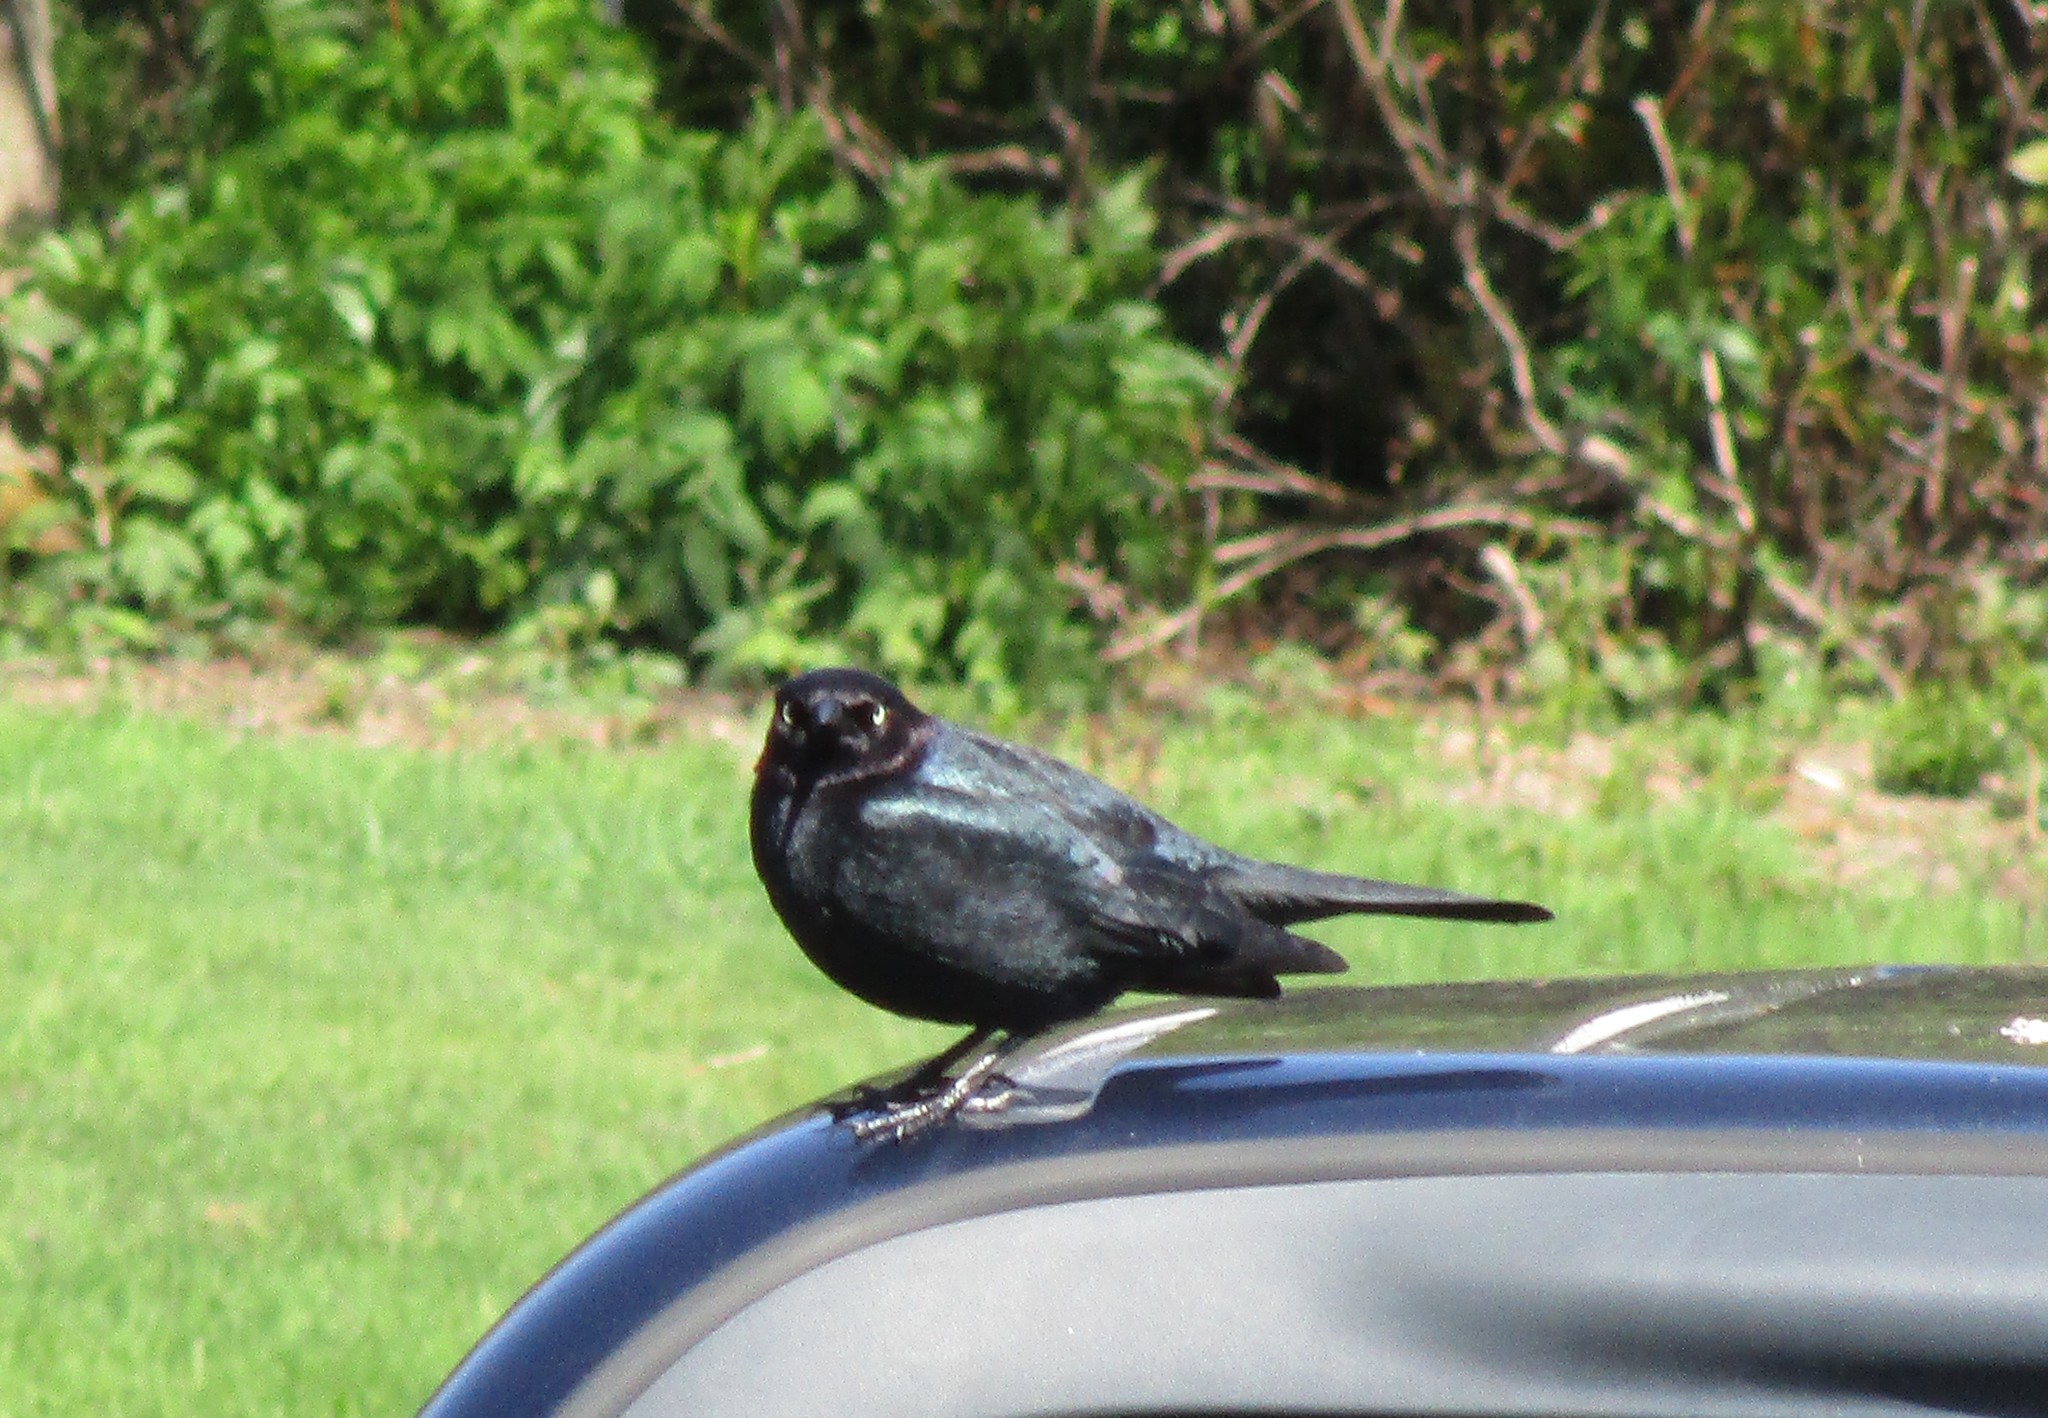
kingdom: Animalia
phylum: Chordata
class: Aves
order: Passeriformes
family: Icteridae
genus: Euphagus
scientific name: Euphagus cyanocephalus
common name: Brewer's blackbird
